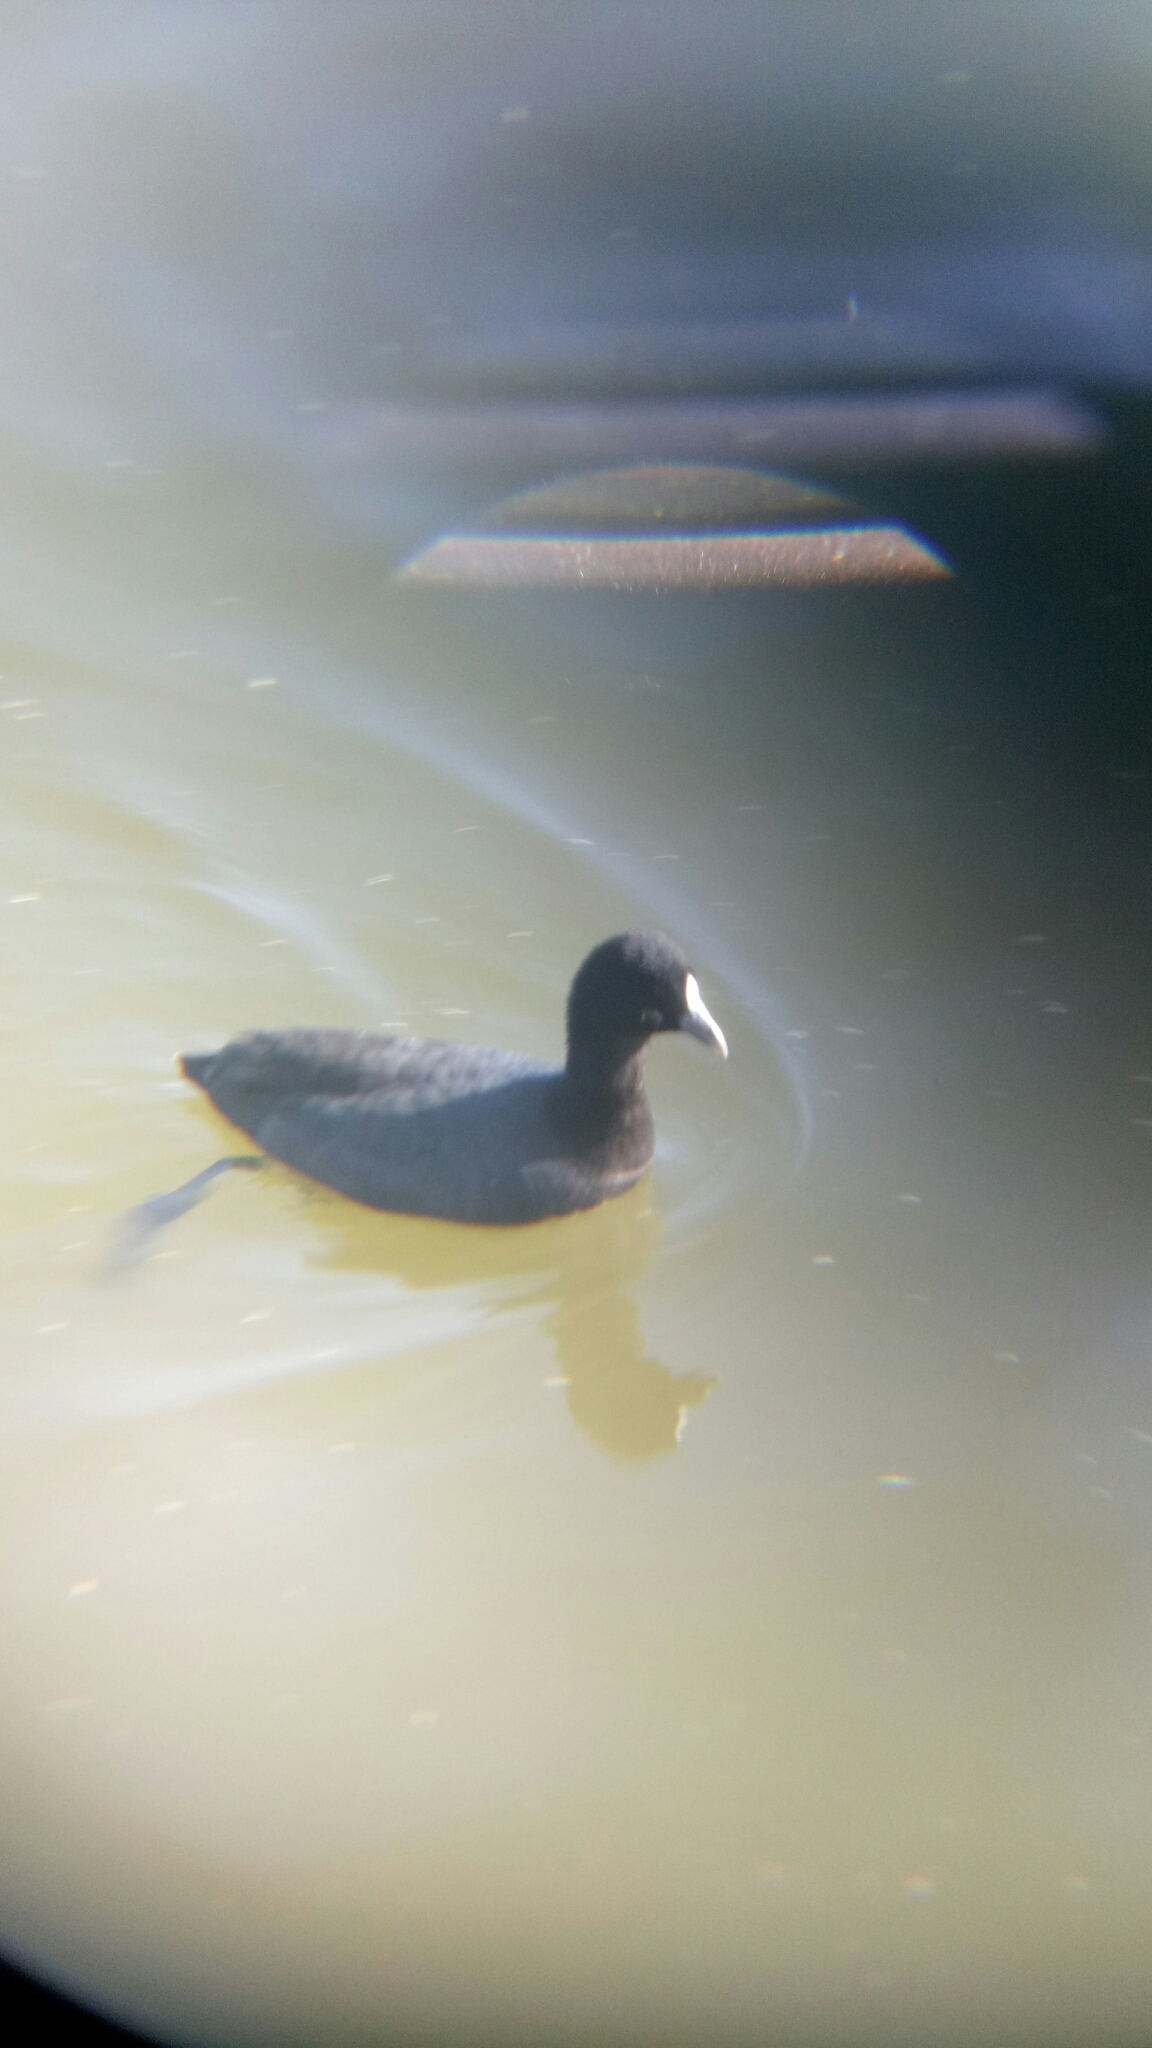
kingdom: Animalia
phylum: Chordata
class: Aves
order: Gruiformes
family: Rallidae
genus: Fulica
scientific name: Fulica atra
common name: Eurasian coot
